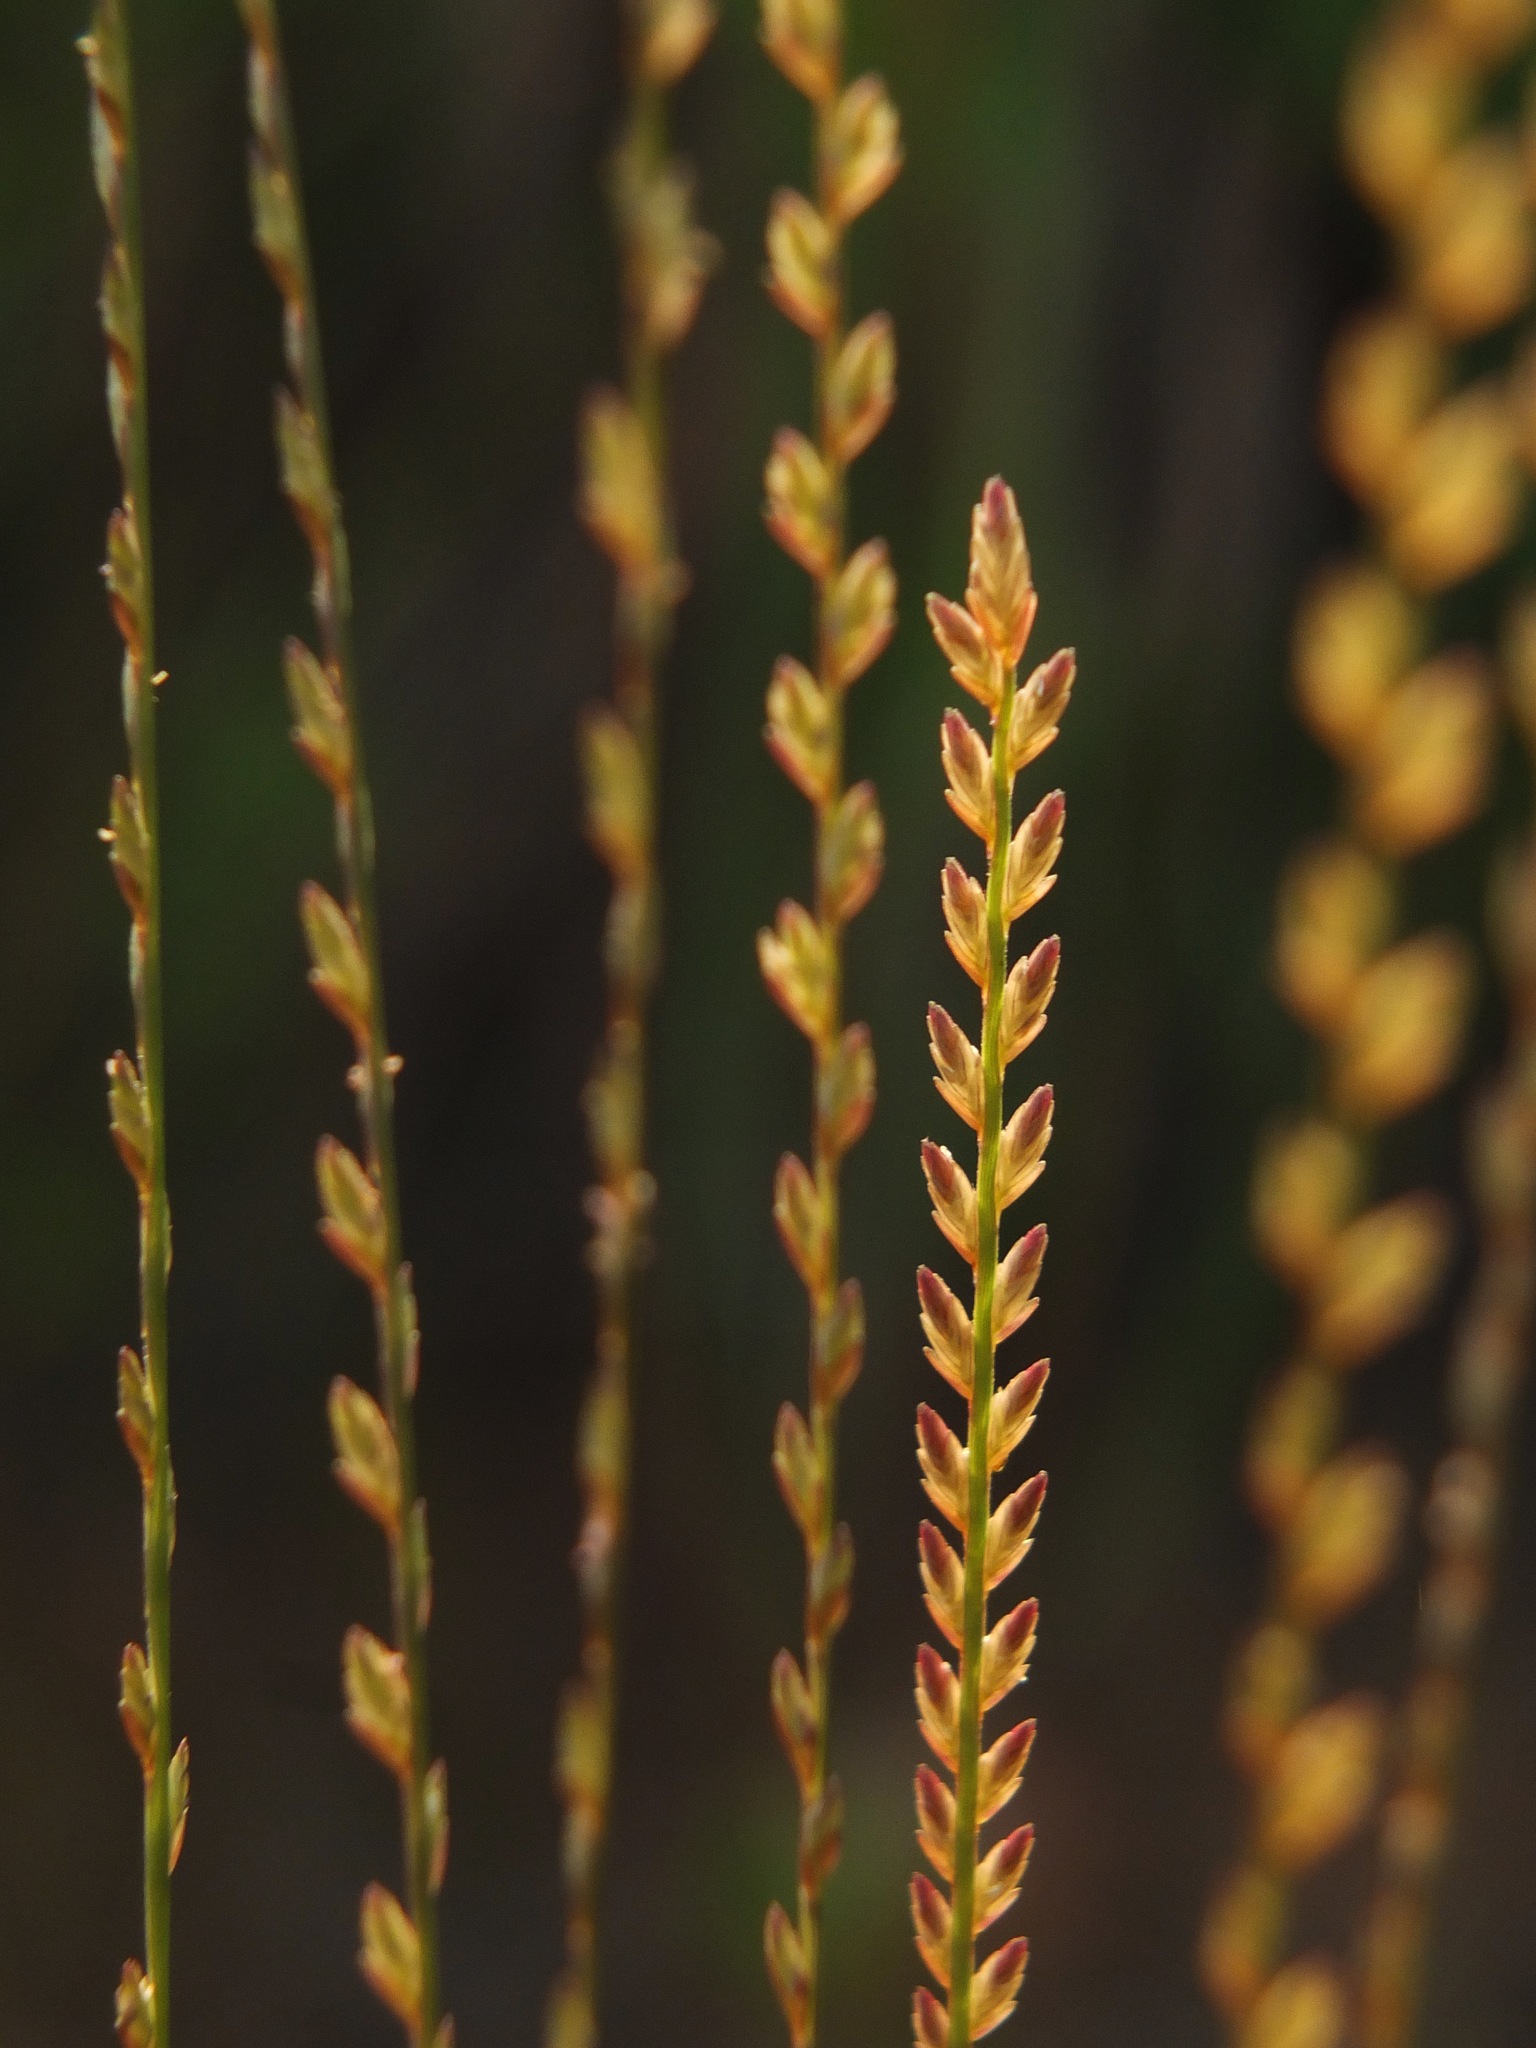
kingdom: Plantae
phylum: Tracheophyta
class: Liliopsida
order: Poales
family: Poaceae
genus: Eragrostiella
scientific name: Eragrostiella bifaria
